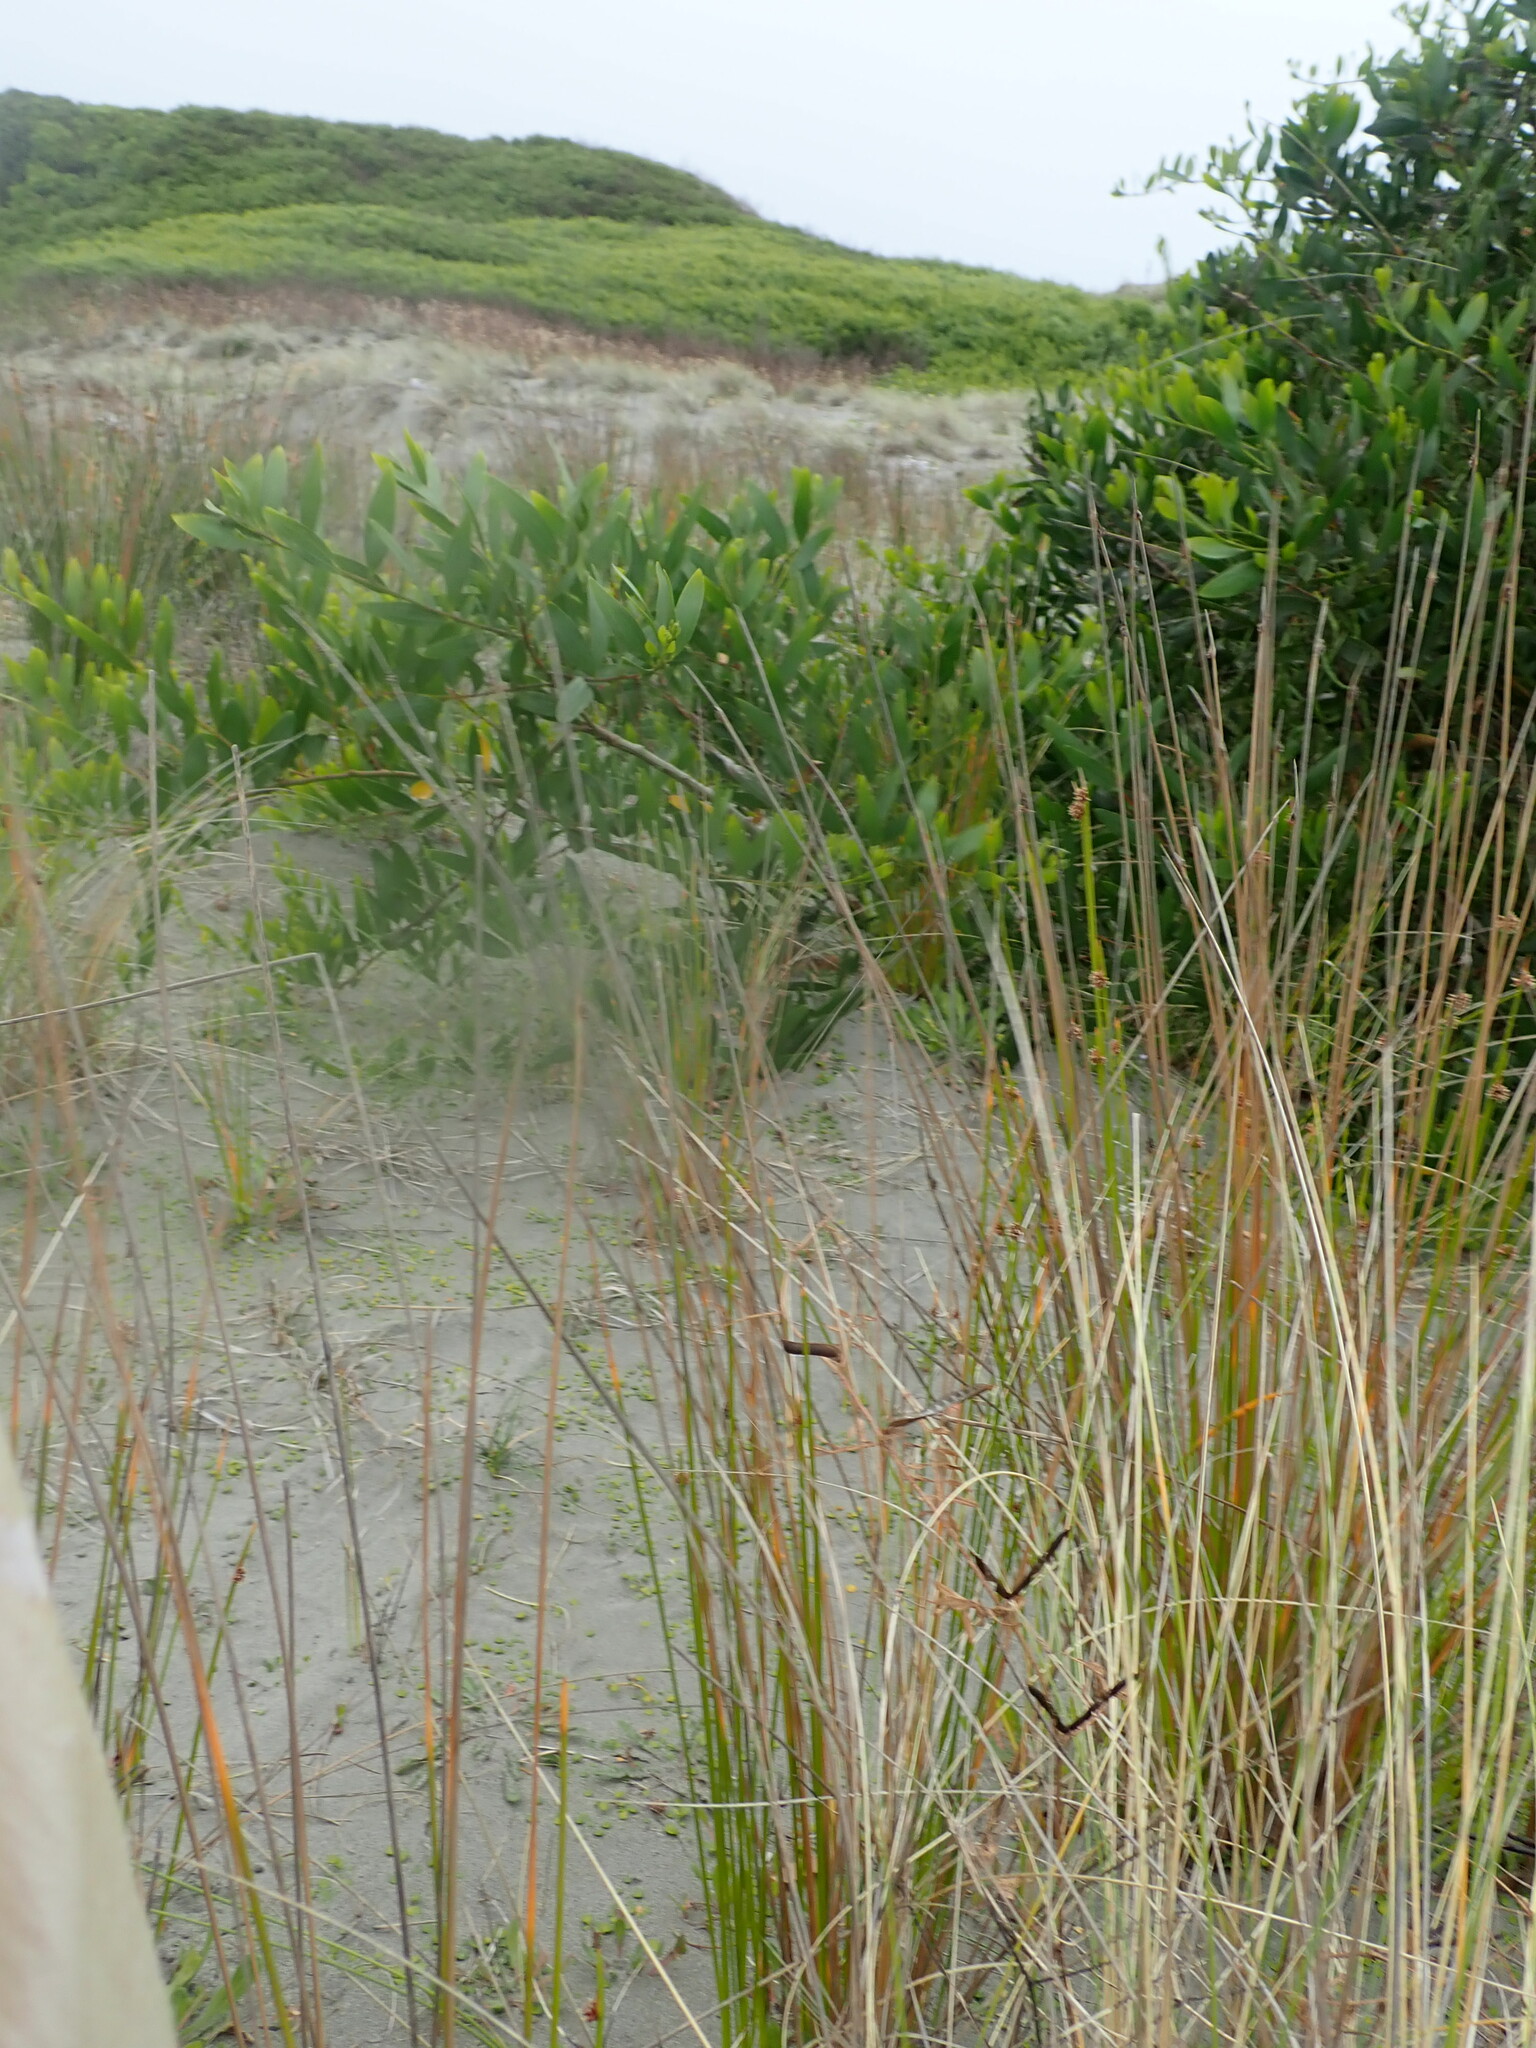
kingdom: Plantae
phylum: Tracheophyta
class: Liliopsida
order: Poales
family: Cyperaceae
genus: Ficinia
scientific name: Ficinia nodosa
